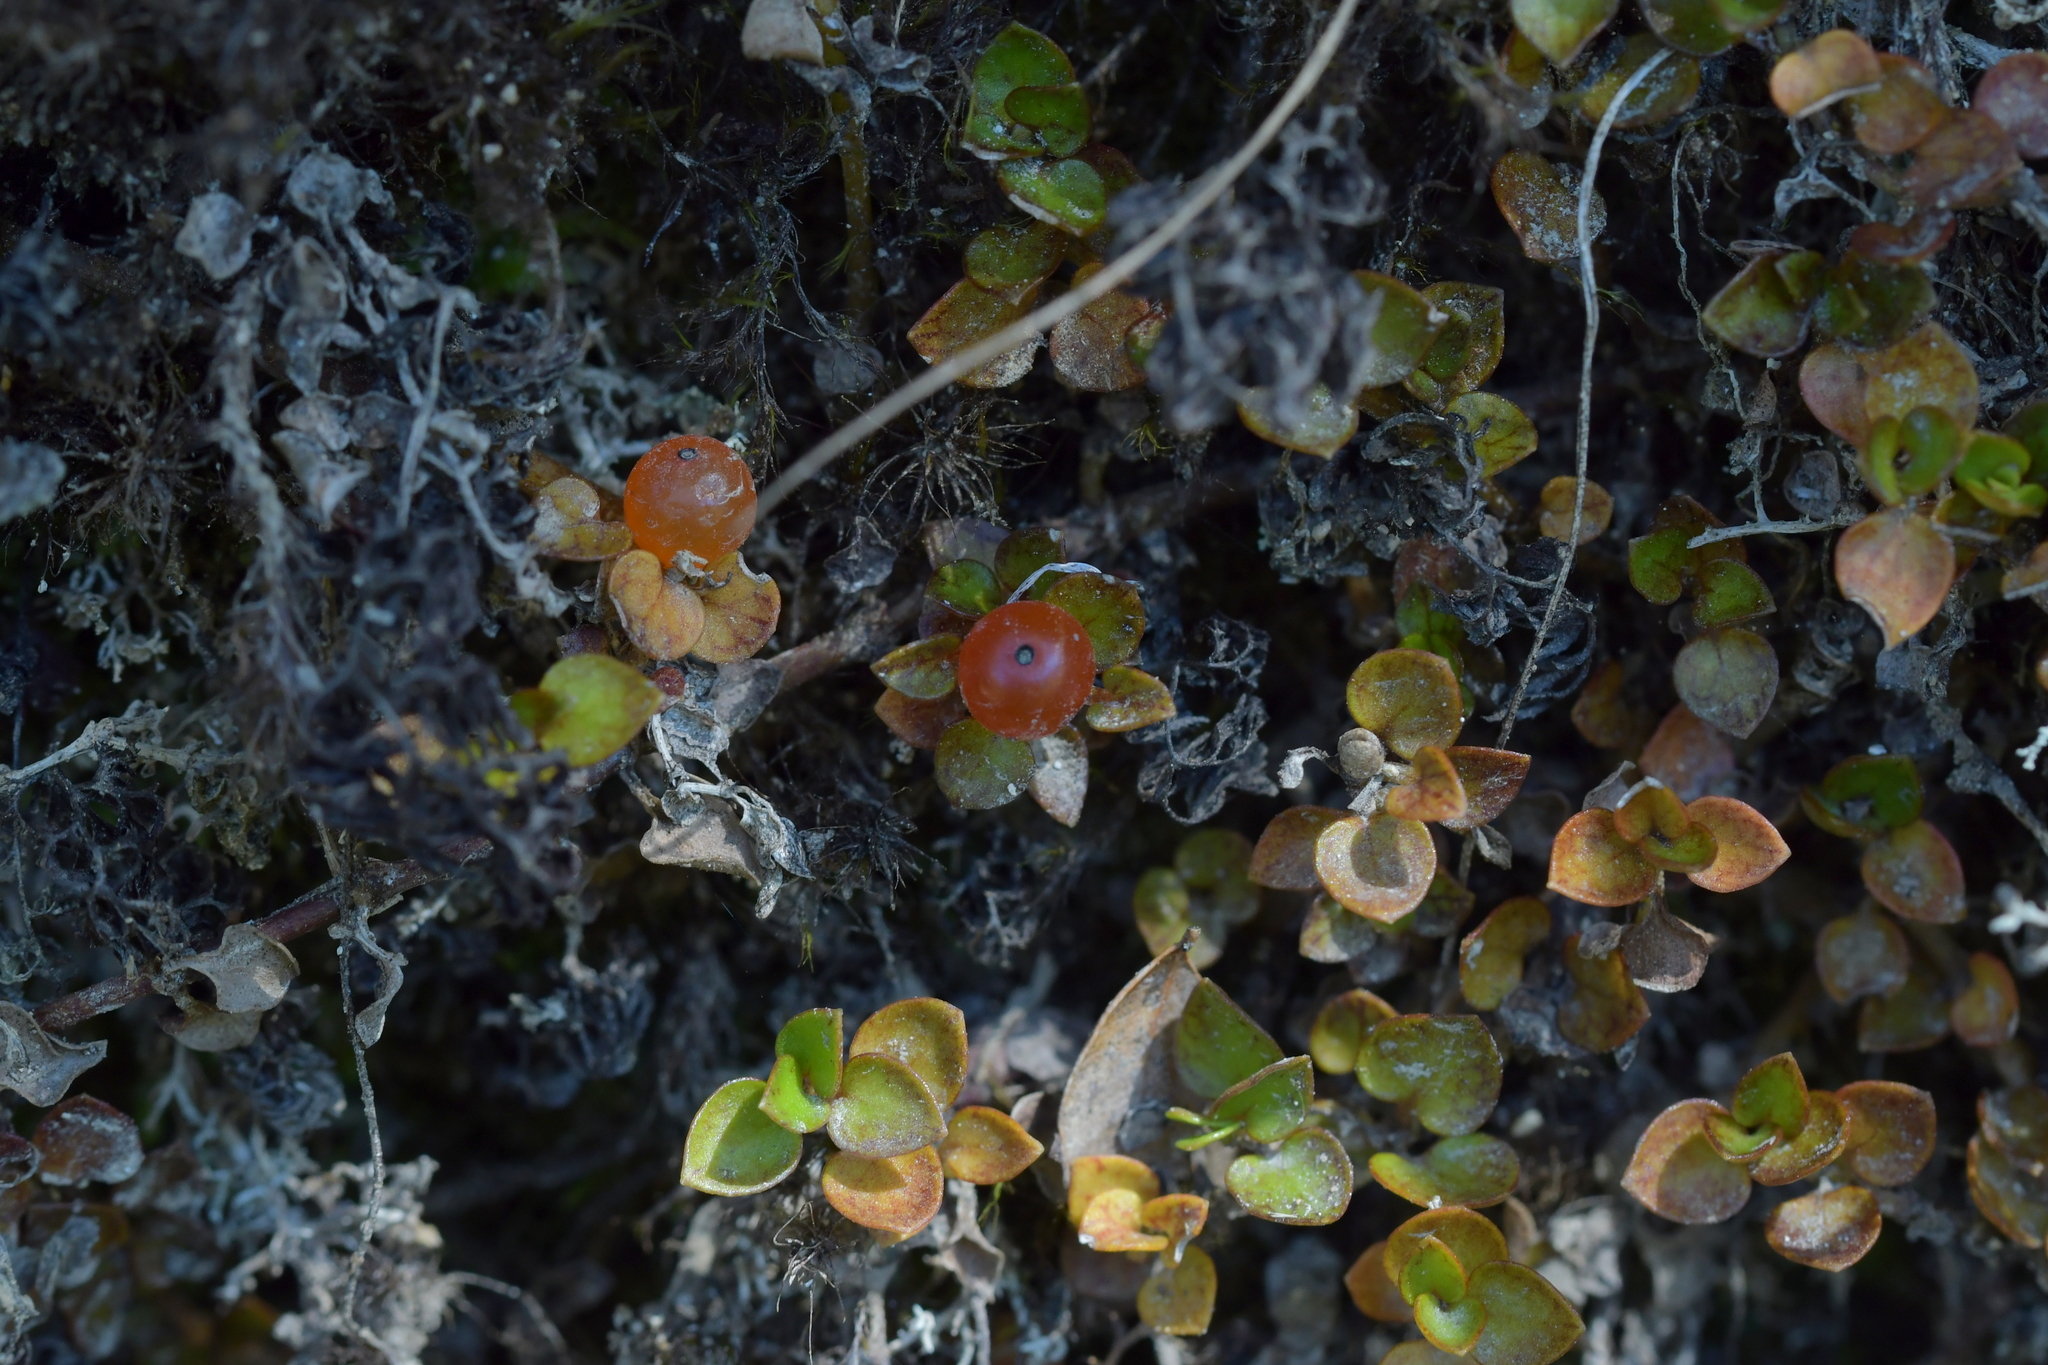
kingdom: Plantae
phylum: Tracheophyta
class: Magnoliopsida
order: Gentianales
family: Rubiaceae
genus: Nertera
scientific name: Nertera granadensis
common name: Beadplant
